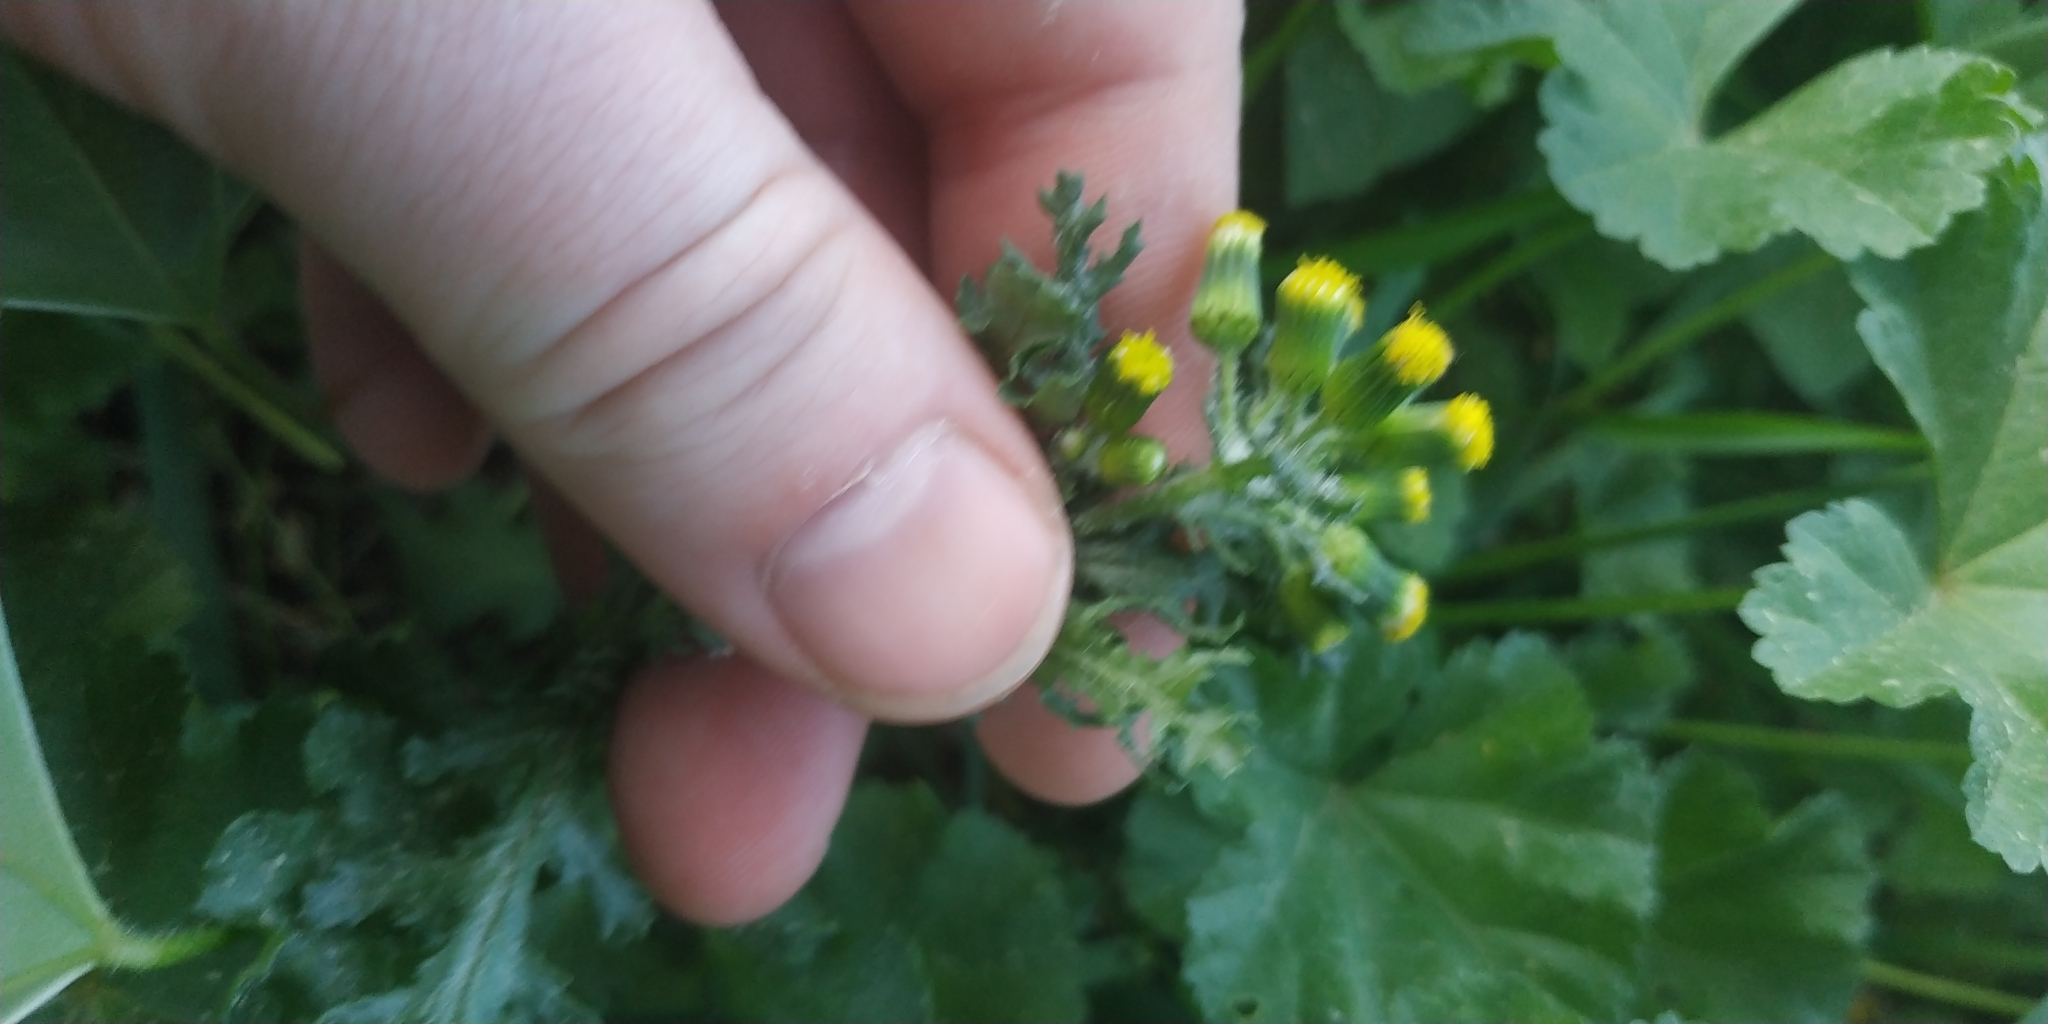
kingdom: Plantae
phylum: Tracheophyta
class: Magnoliopsida
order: Asterales
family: Asteraceae
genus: Senecio
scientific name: Senecio vulgaris
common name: Old-man-in-the-spring
